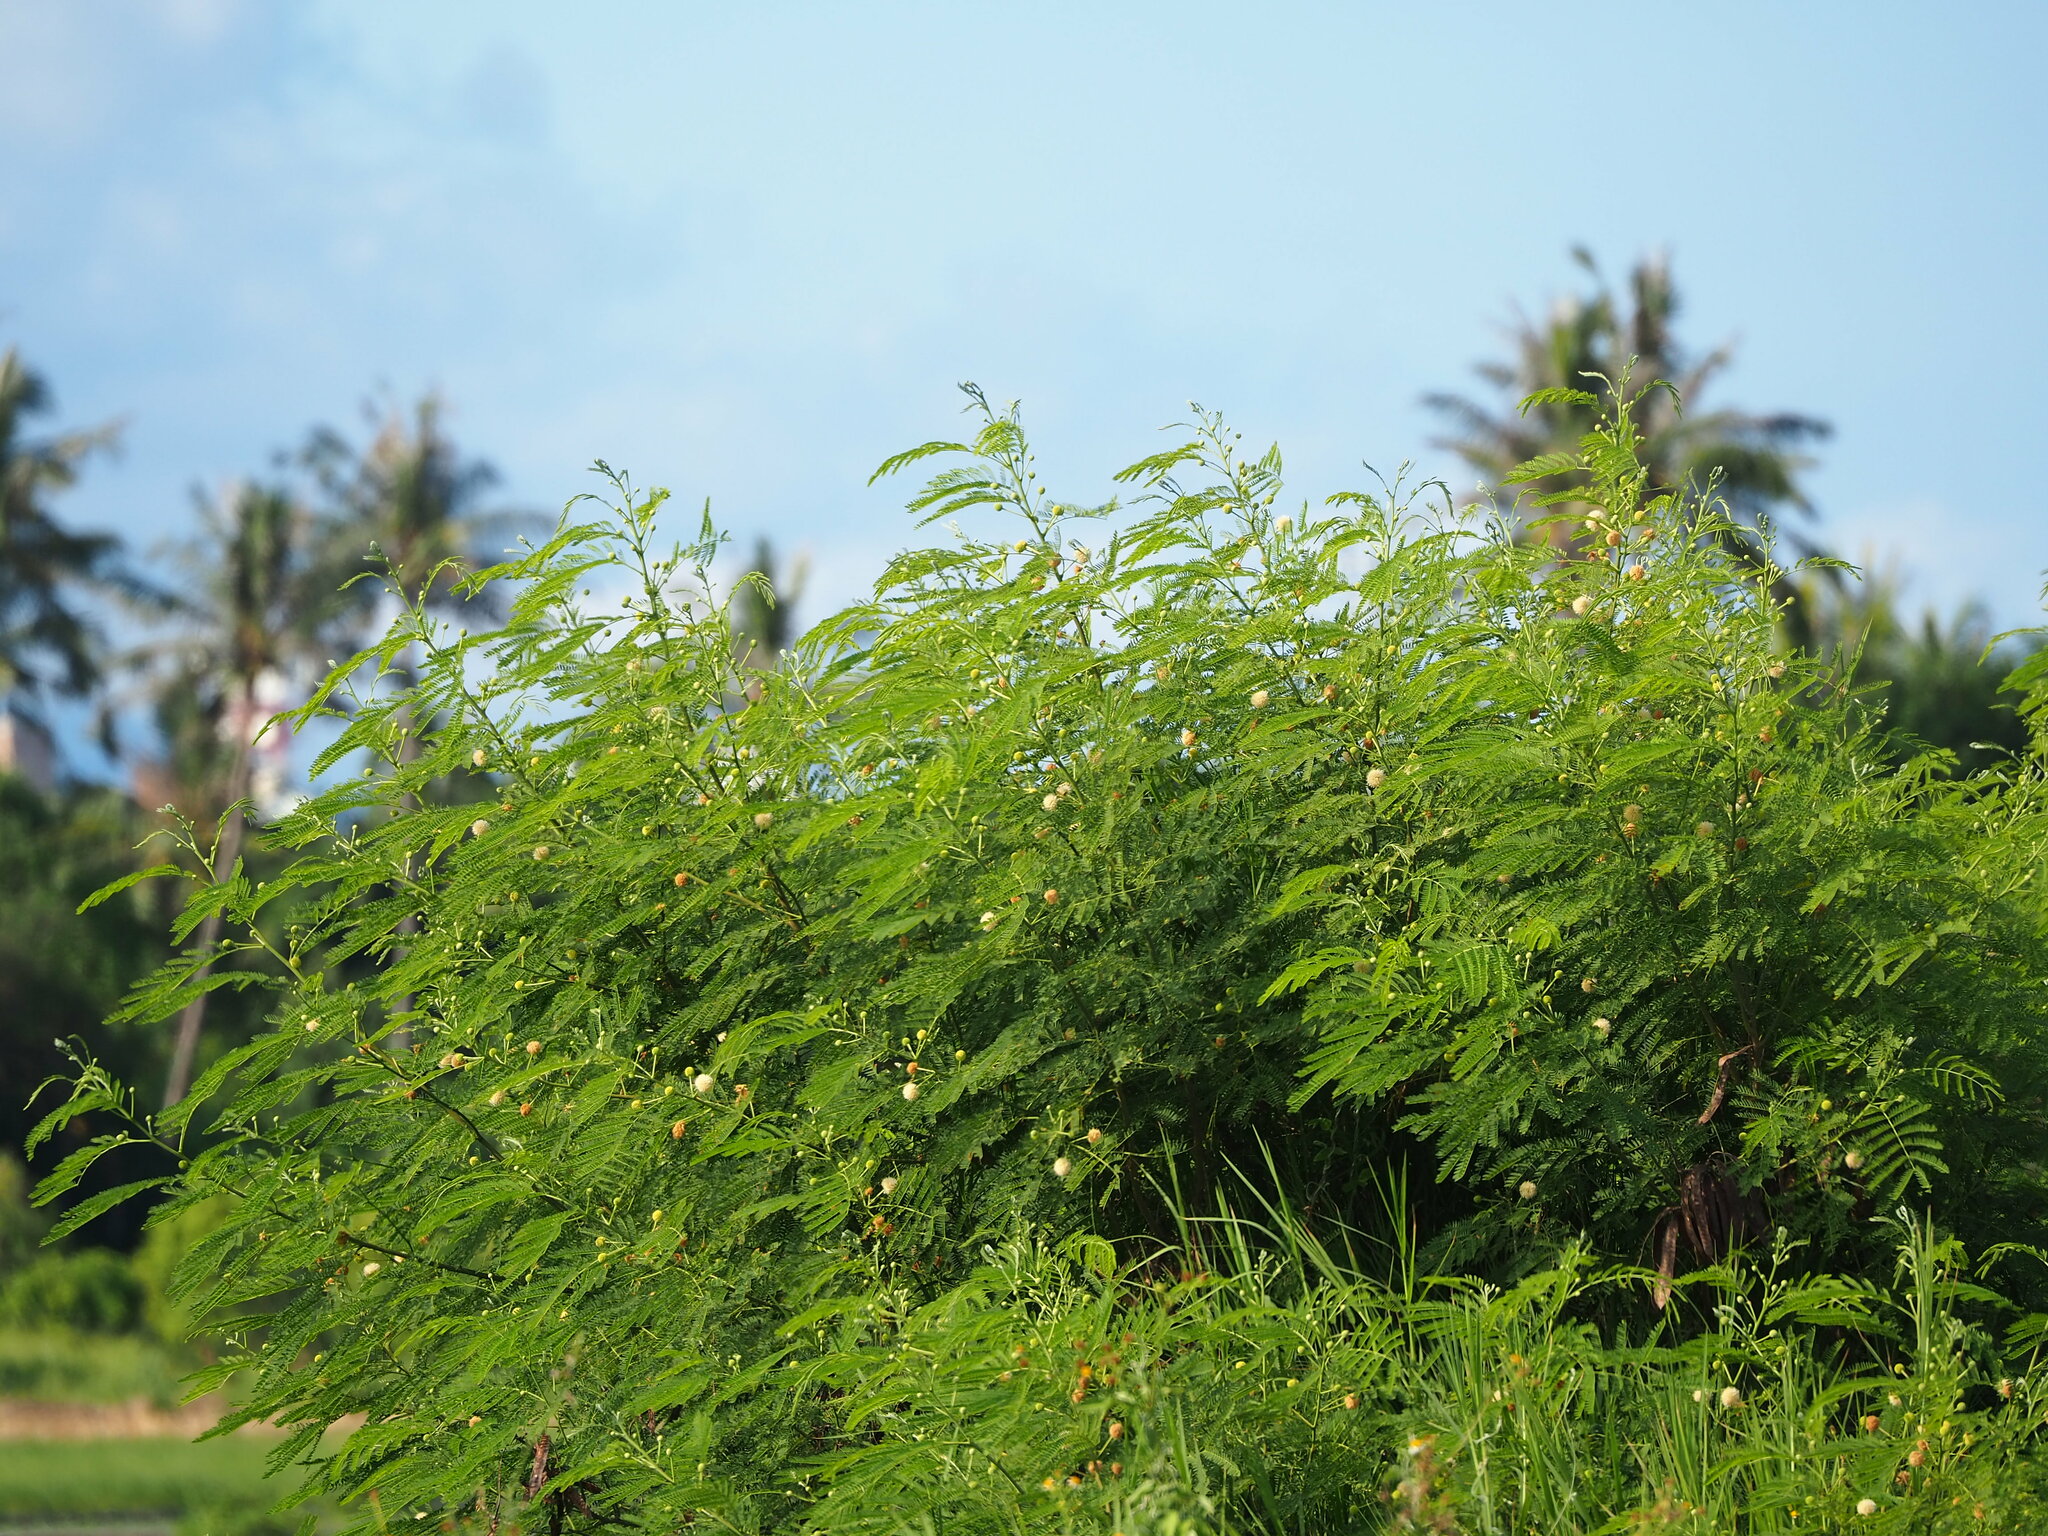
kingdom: Plantae
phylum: Tracheophyta
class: Magnoliopsida
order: Fabales
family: Fabaceae
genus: Leucaena
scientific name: Leucaena leucocephala
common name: White leadtree
